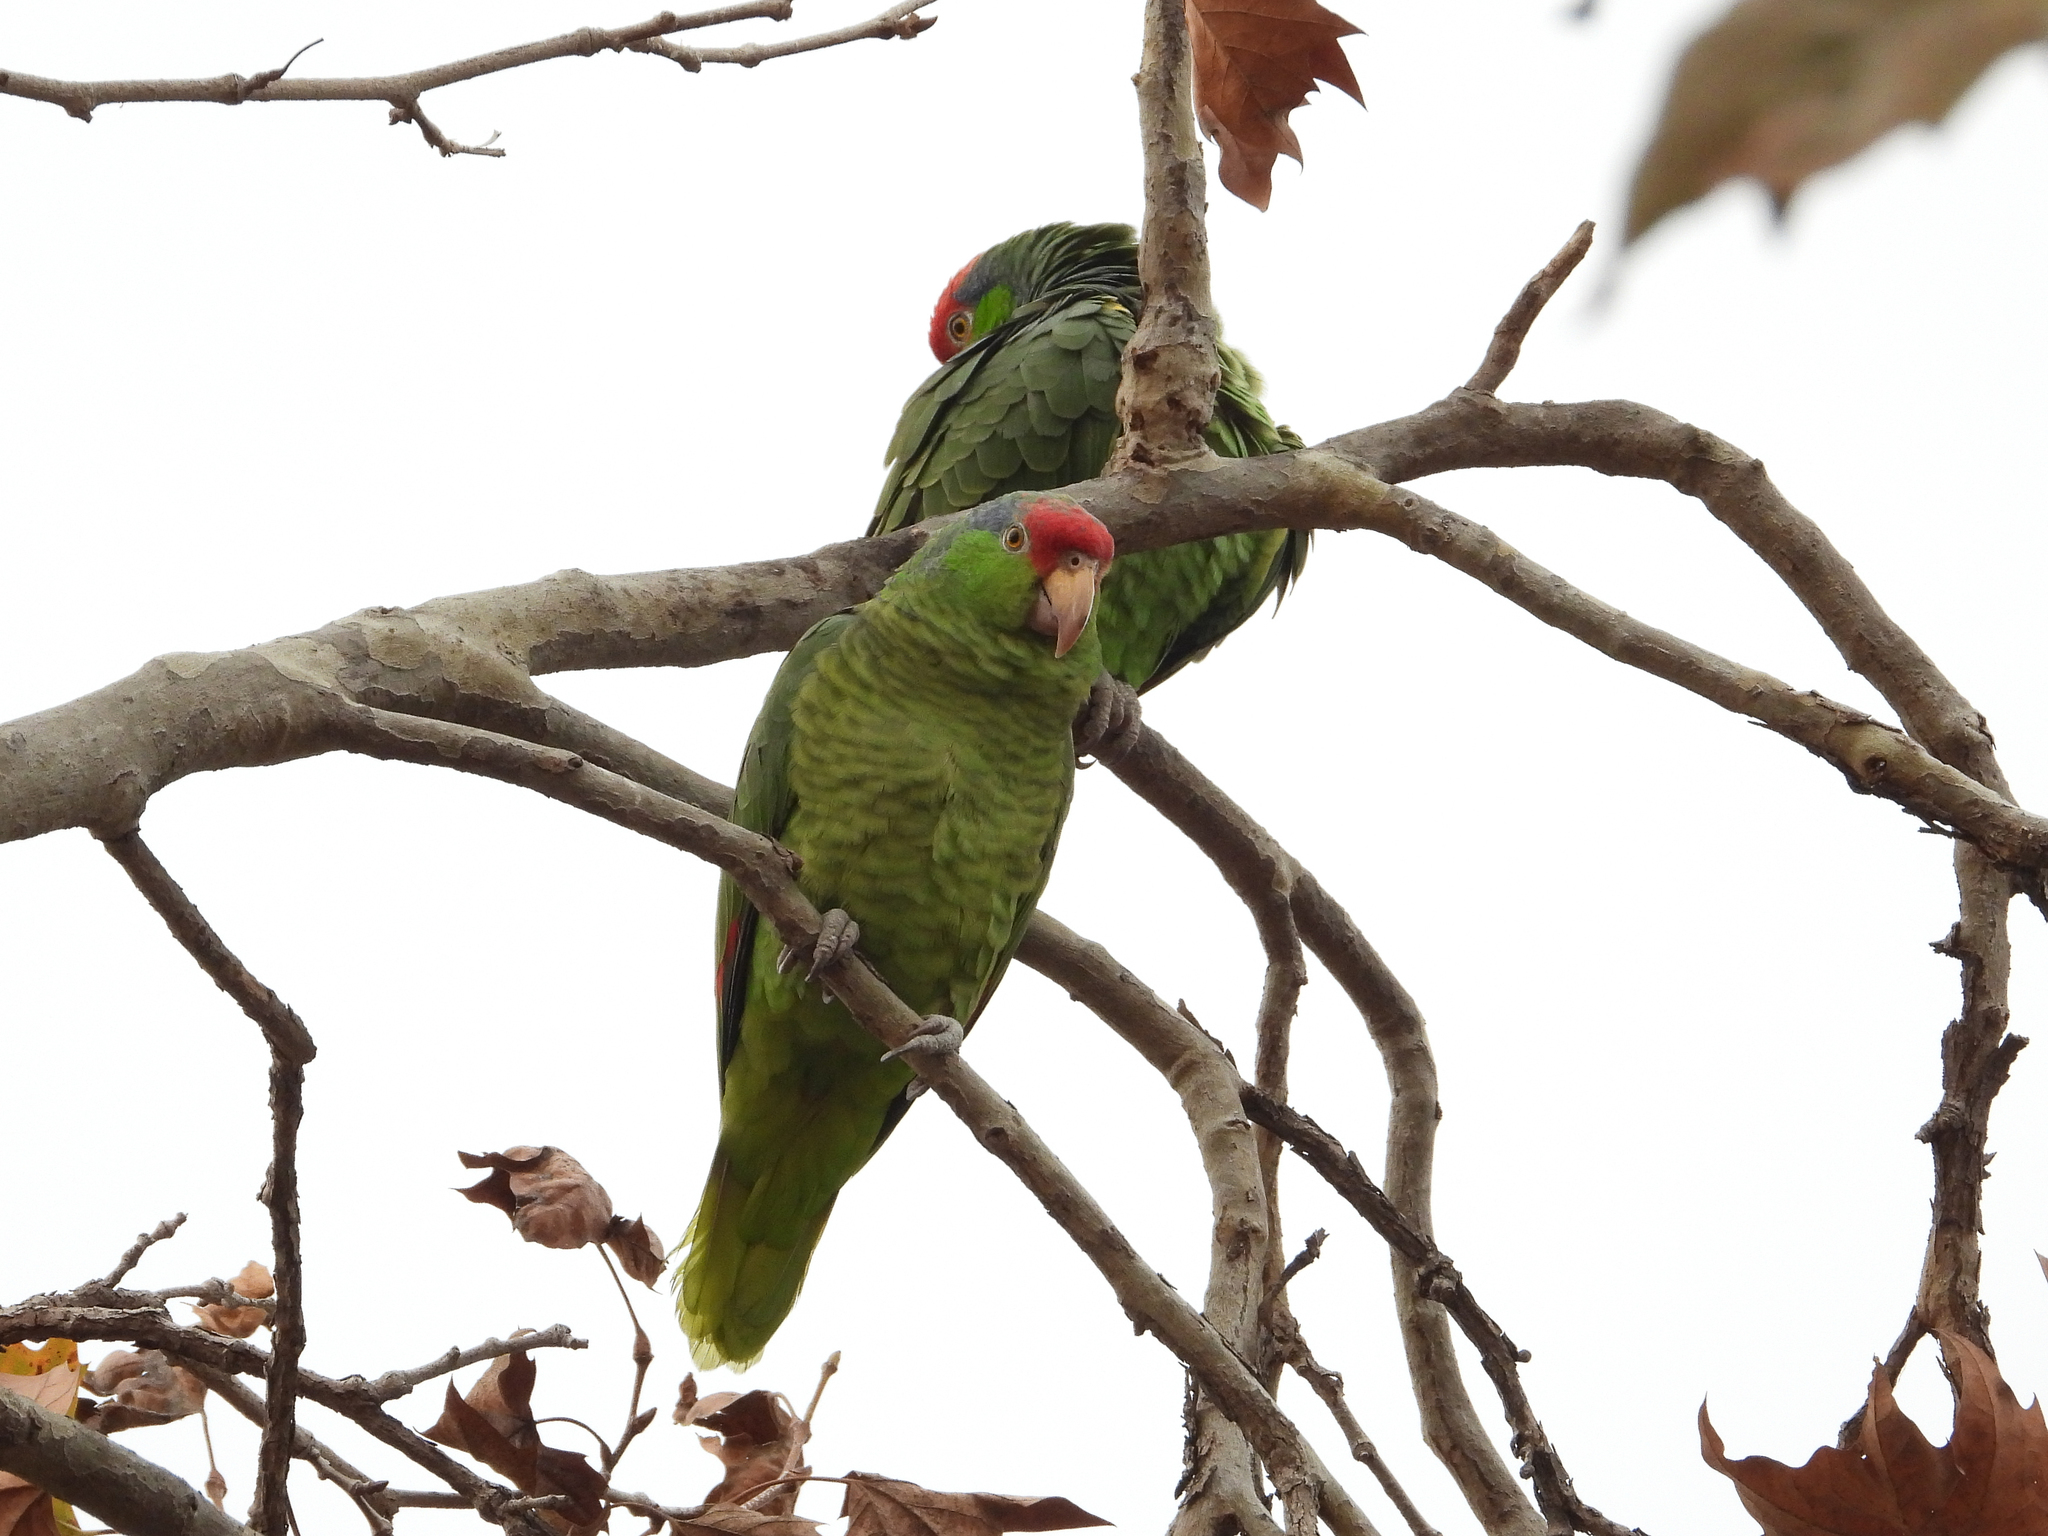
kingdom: Animalia
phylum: Chordata
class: Aves
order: Psittaciformes
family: Psittacidae
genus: Amazona
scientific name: Amazona viridigenalis
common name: Red-crowned amazon
